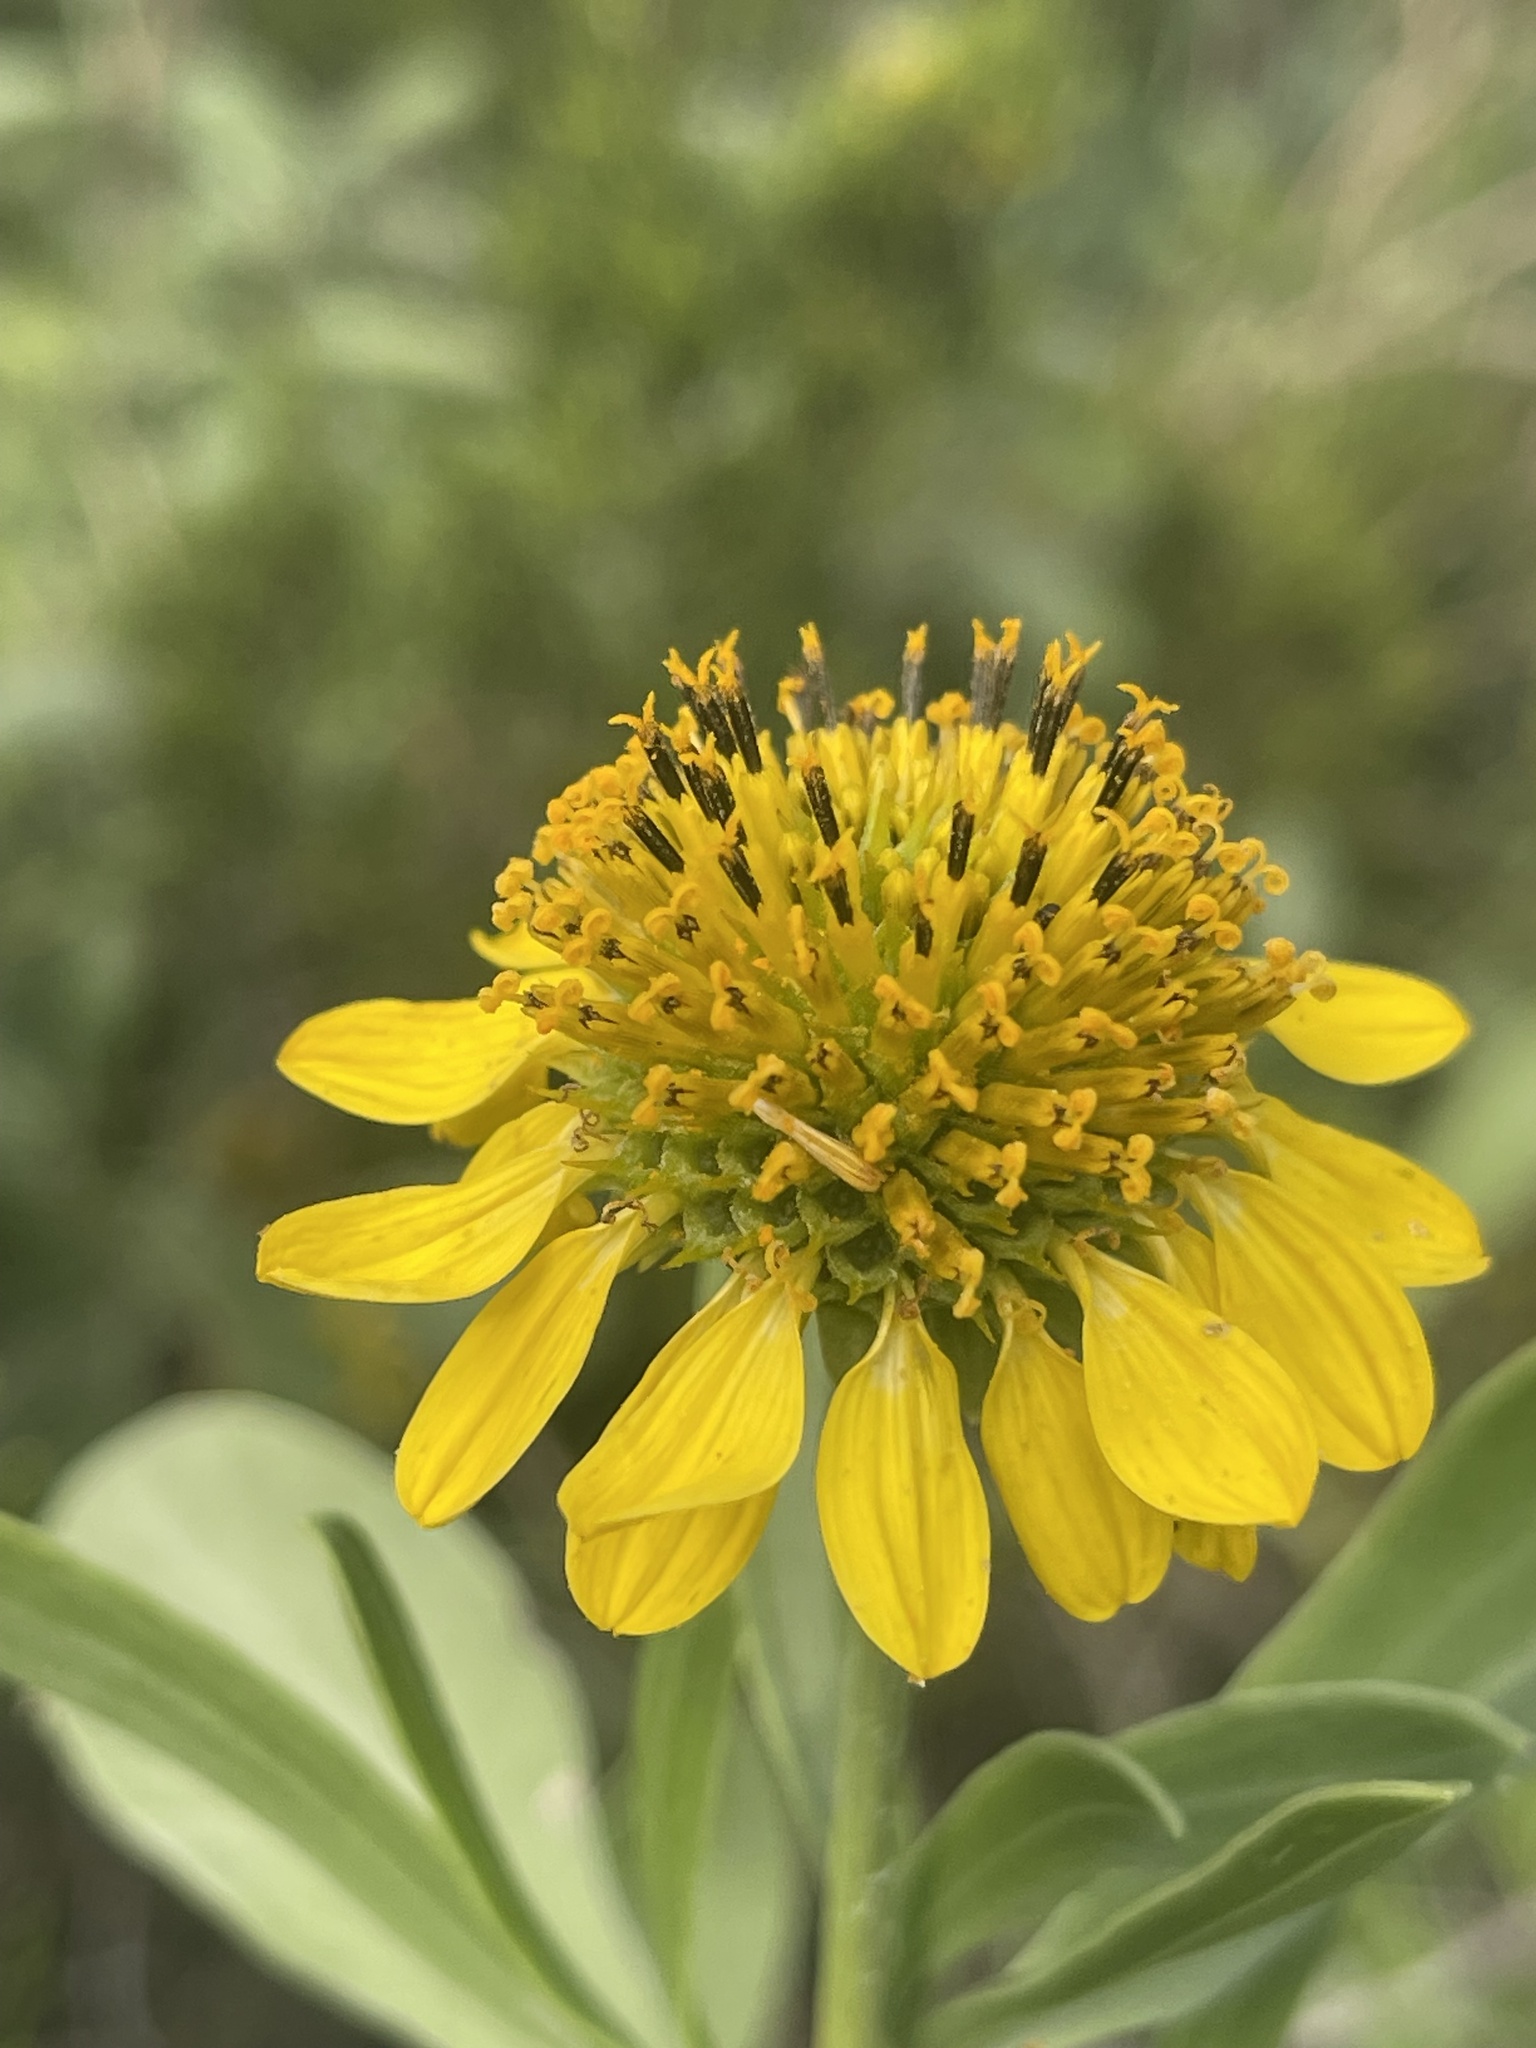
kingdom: Plantae
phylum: Tracheophyta
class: Magnoliopsida
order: Asterales
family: Asteraceae
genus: Borrichia
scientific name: Borrichia frutescens
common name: Sea oxeye
